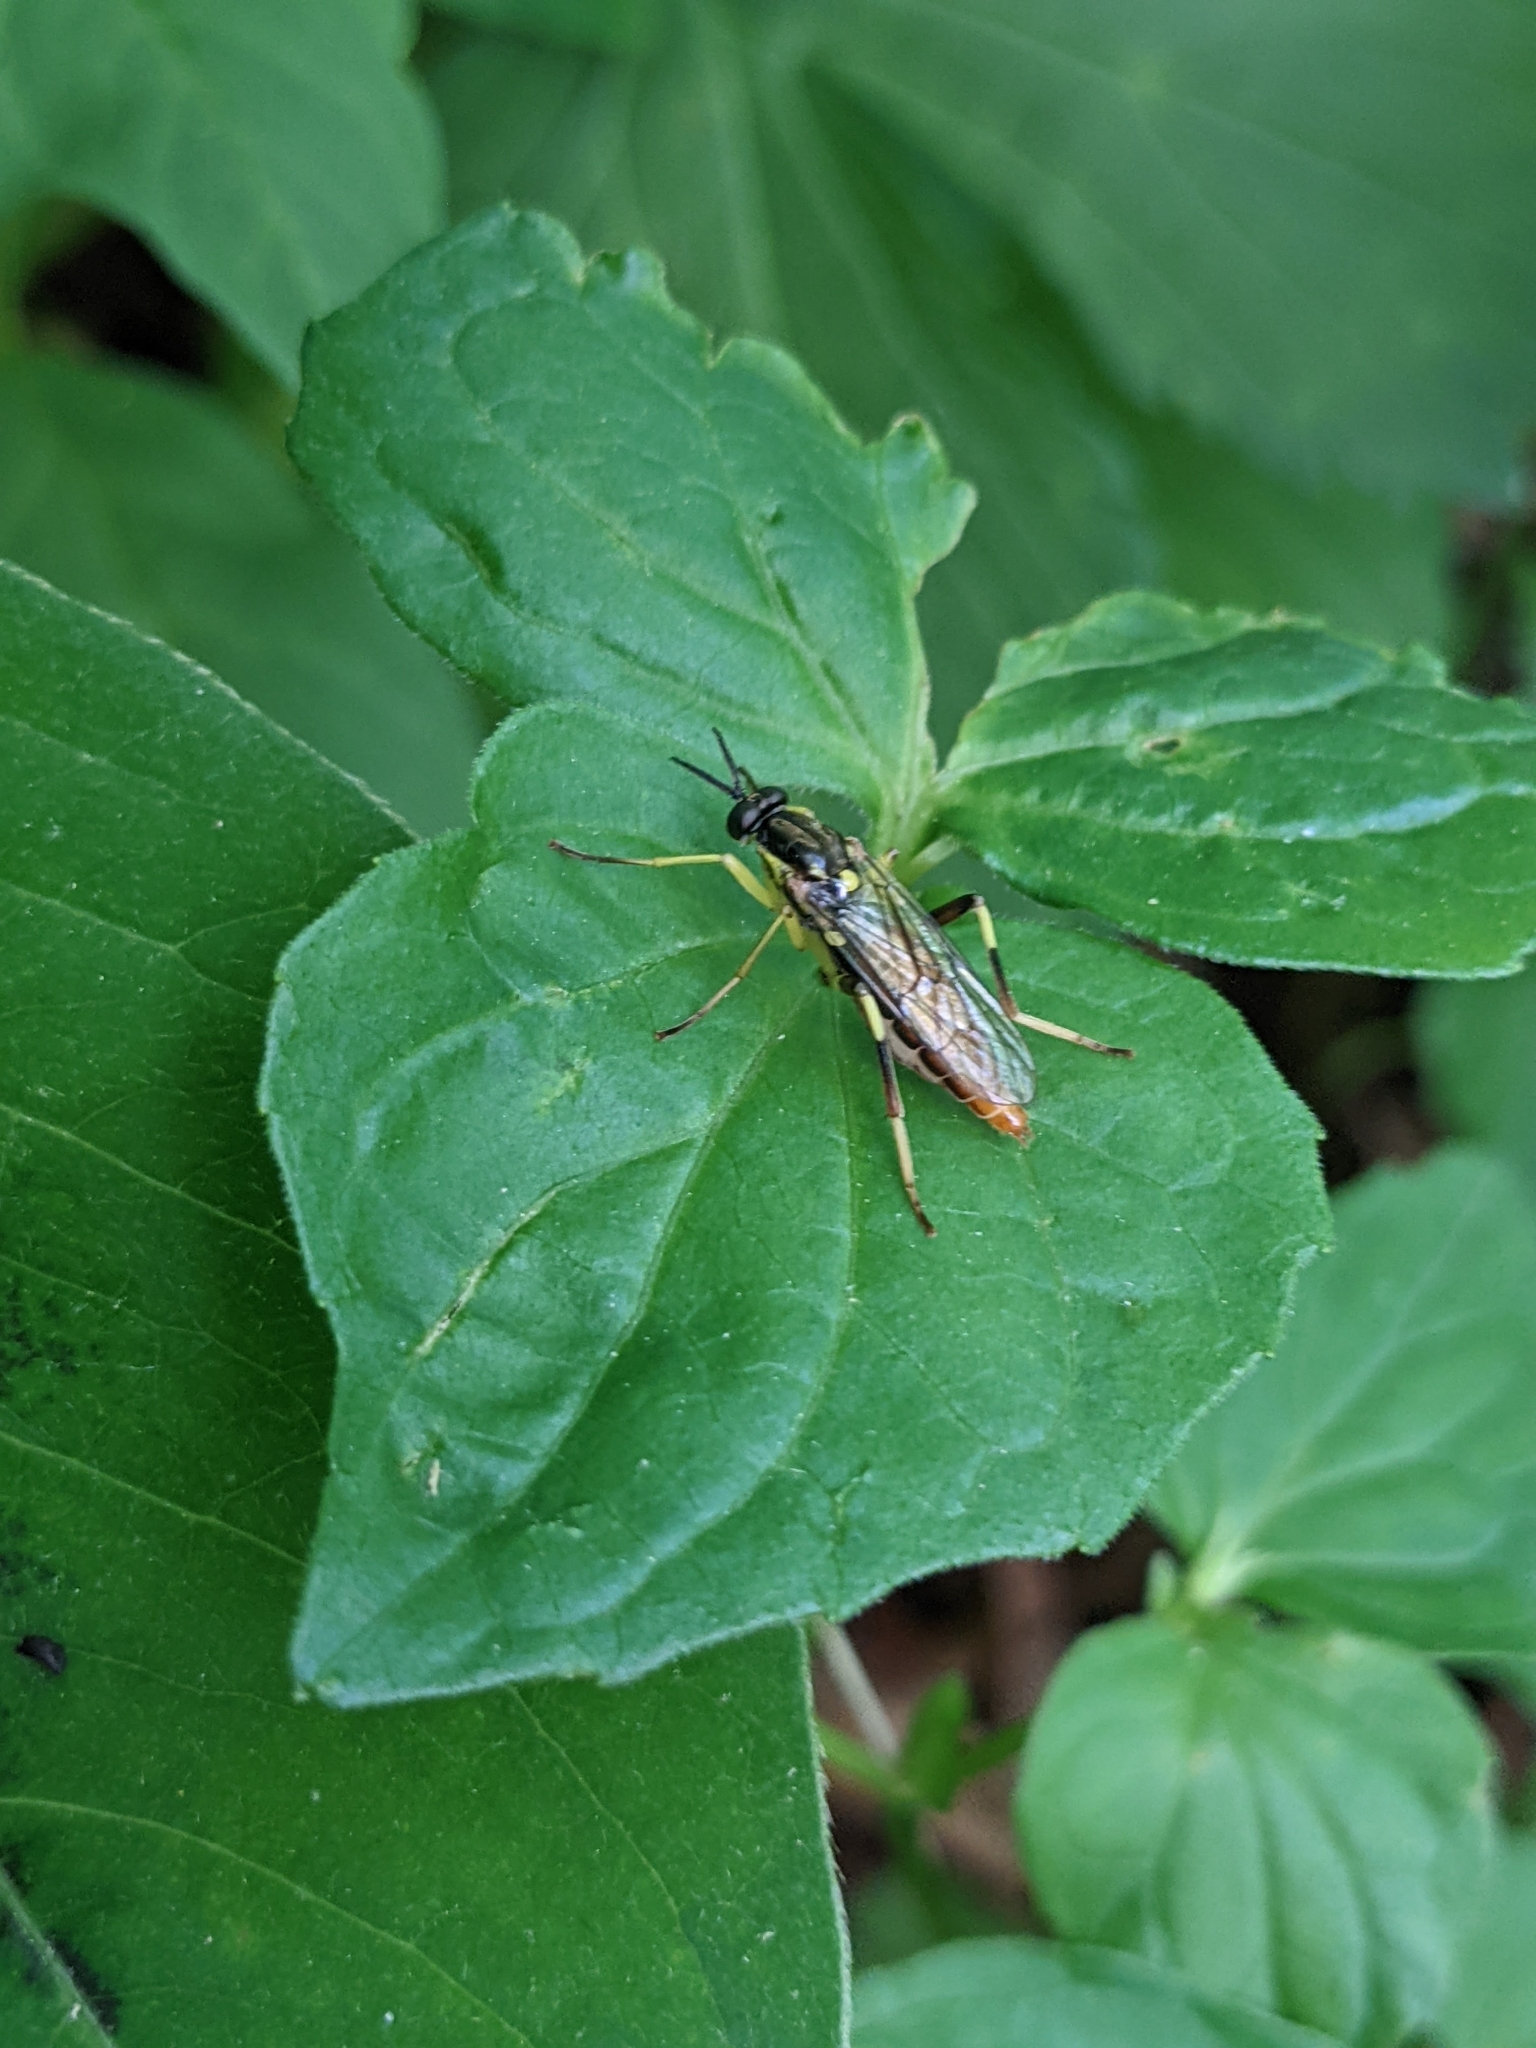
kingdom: Animalia
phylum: Arthropoda
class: Insecta
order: Diptera
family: Xylomyidae
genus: Xylomya
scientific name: Xylomya simillima
